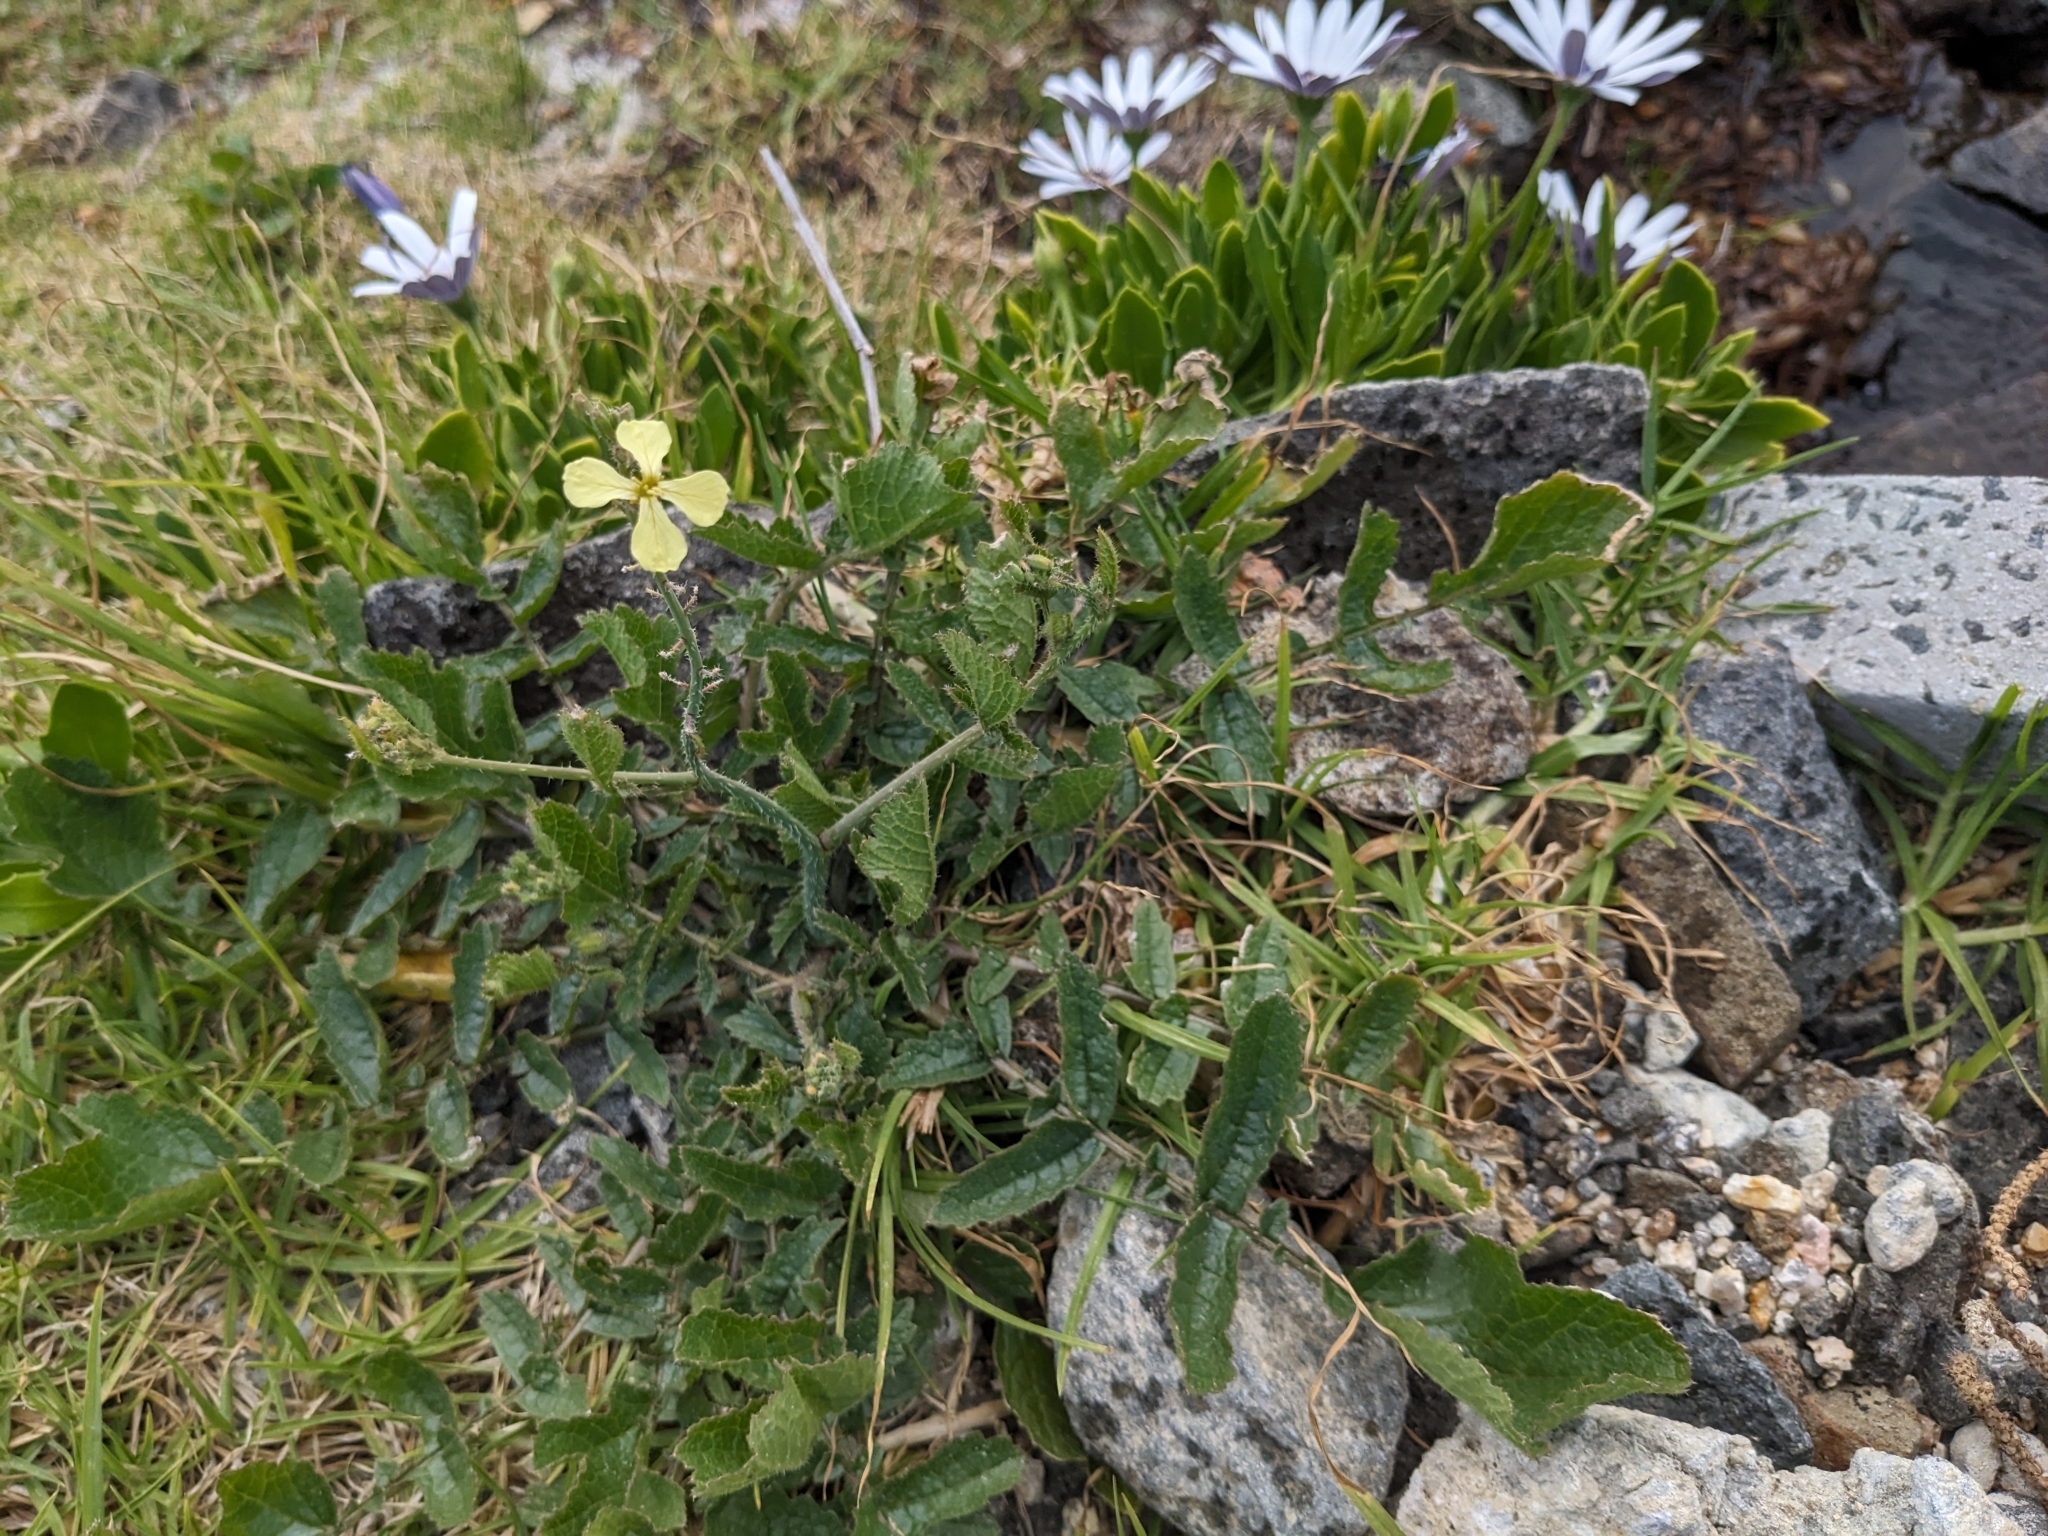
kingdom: Plantae
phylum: Tracheophyta
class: Magnoliopsida
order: Brassicales
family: Brassicaceae
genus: Raphanus
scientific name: Raphanus raphanistrum
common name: Wild radish
